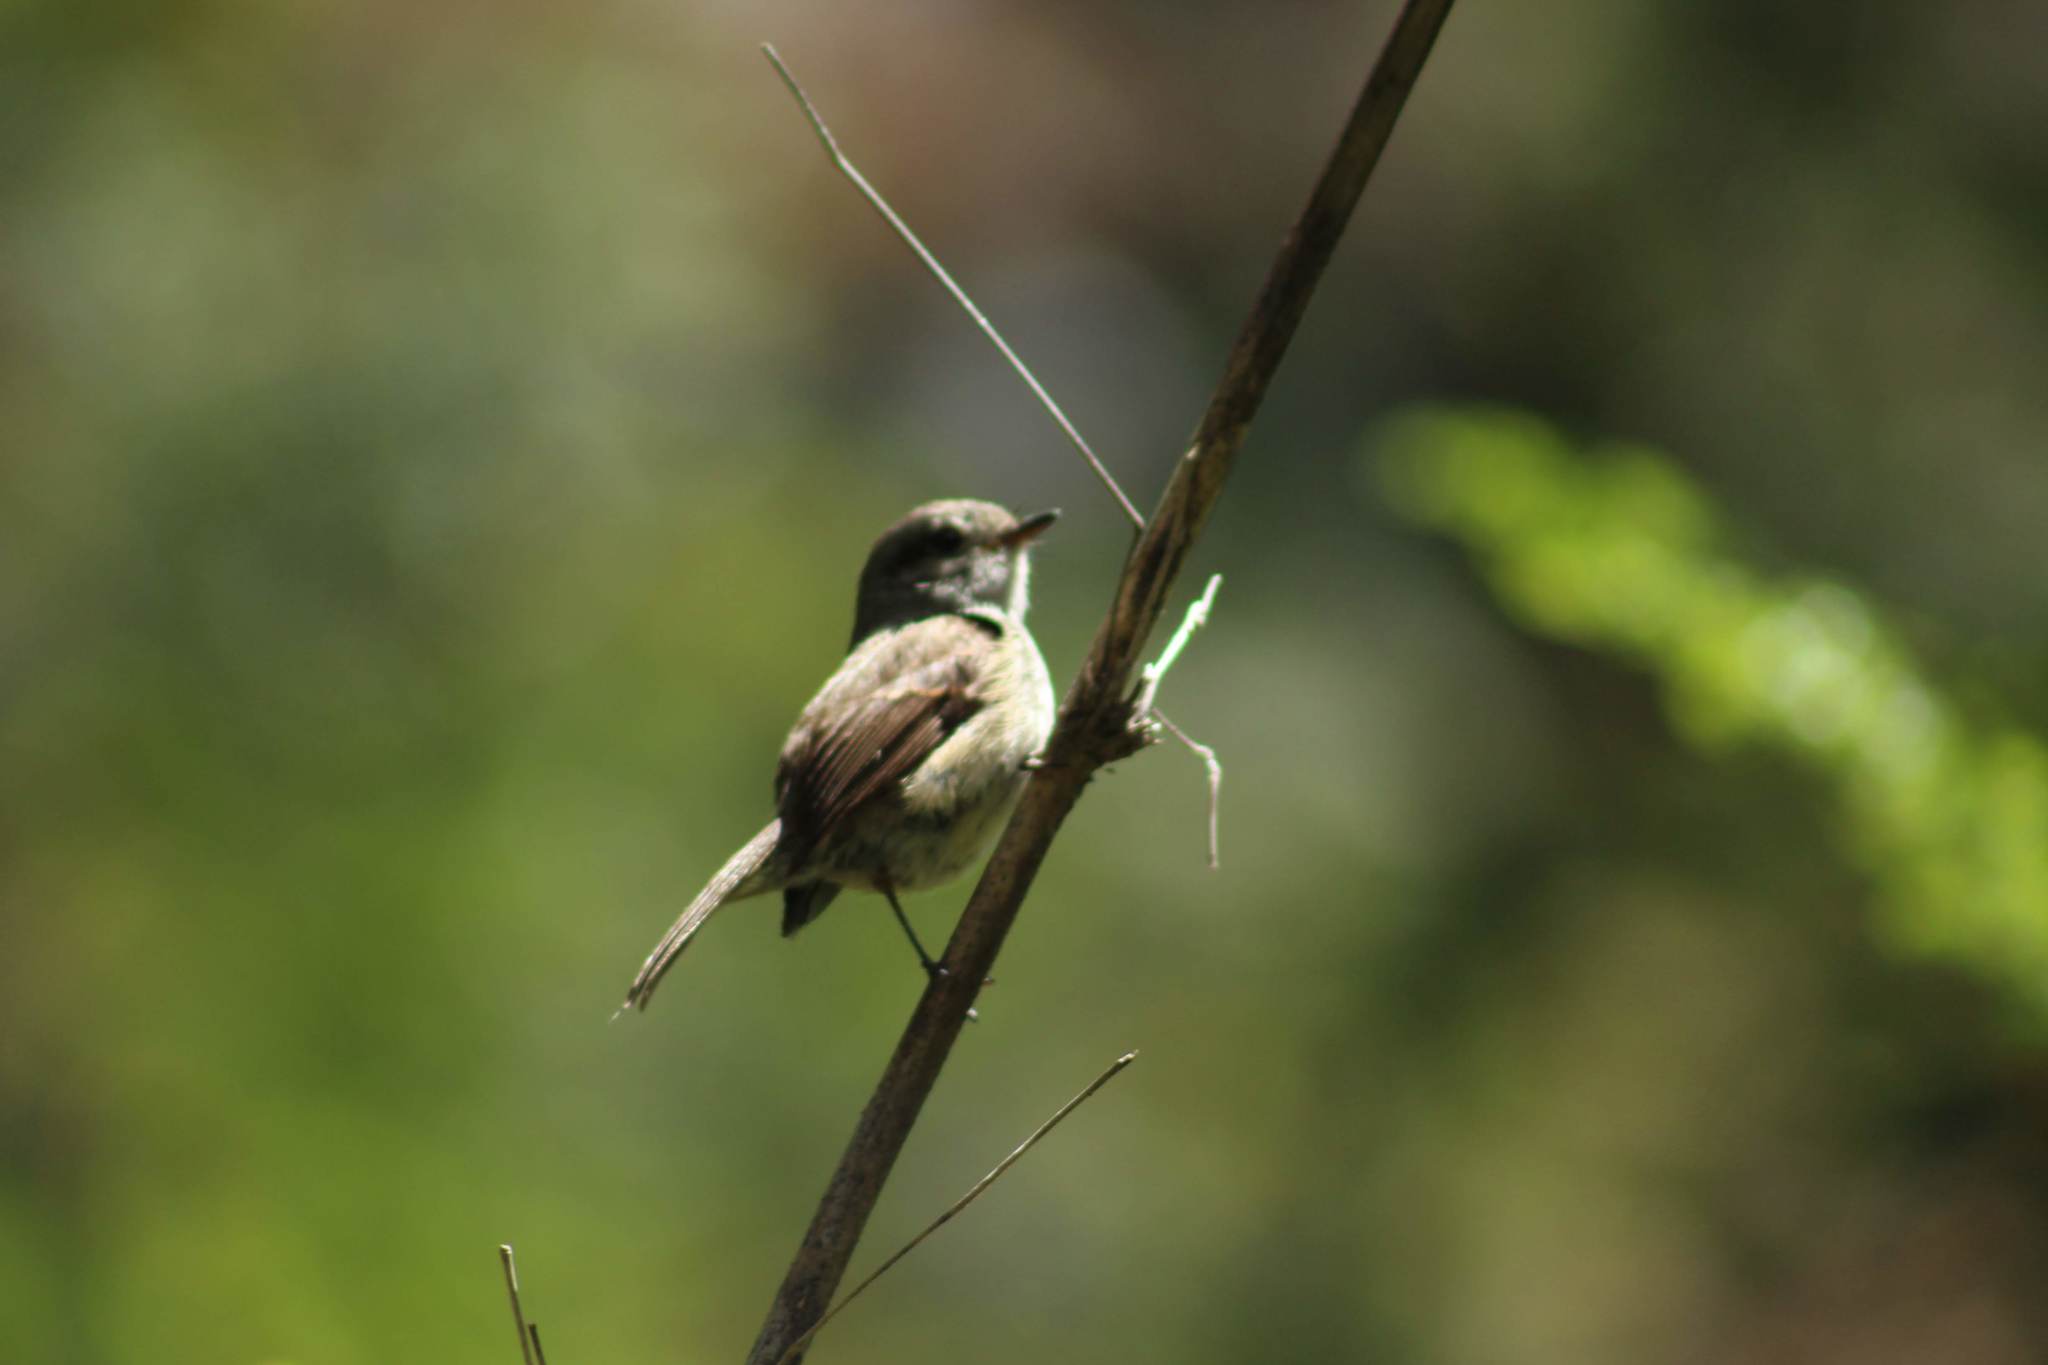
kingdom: Animalia
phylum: Chordata
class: Aves
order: Passeriformes
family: Tyrannidae
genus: Colorhamphus
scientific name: Colorhamphus parvirostris
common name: Patagonian tyrant
